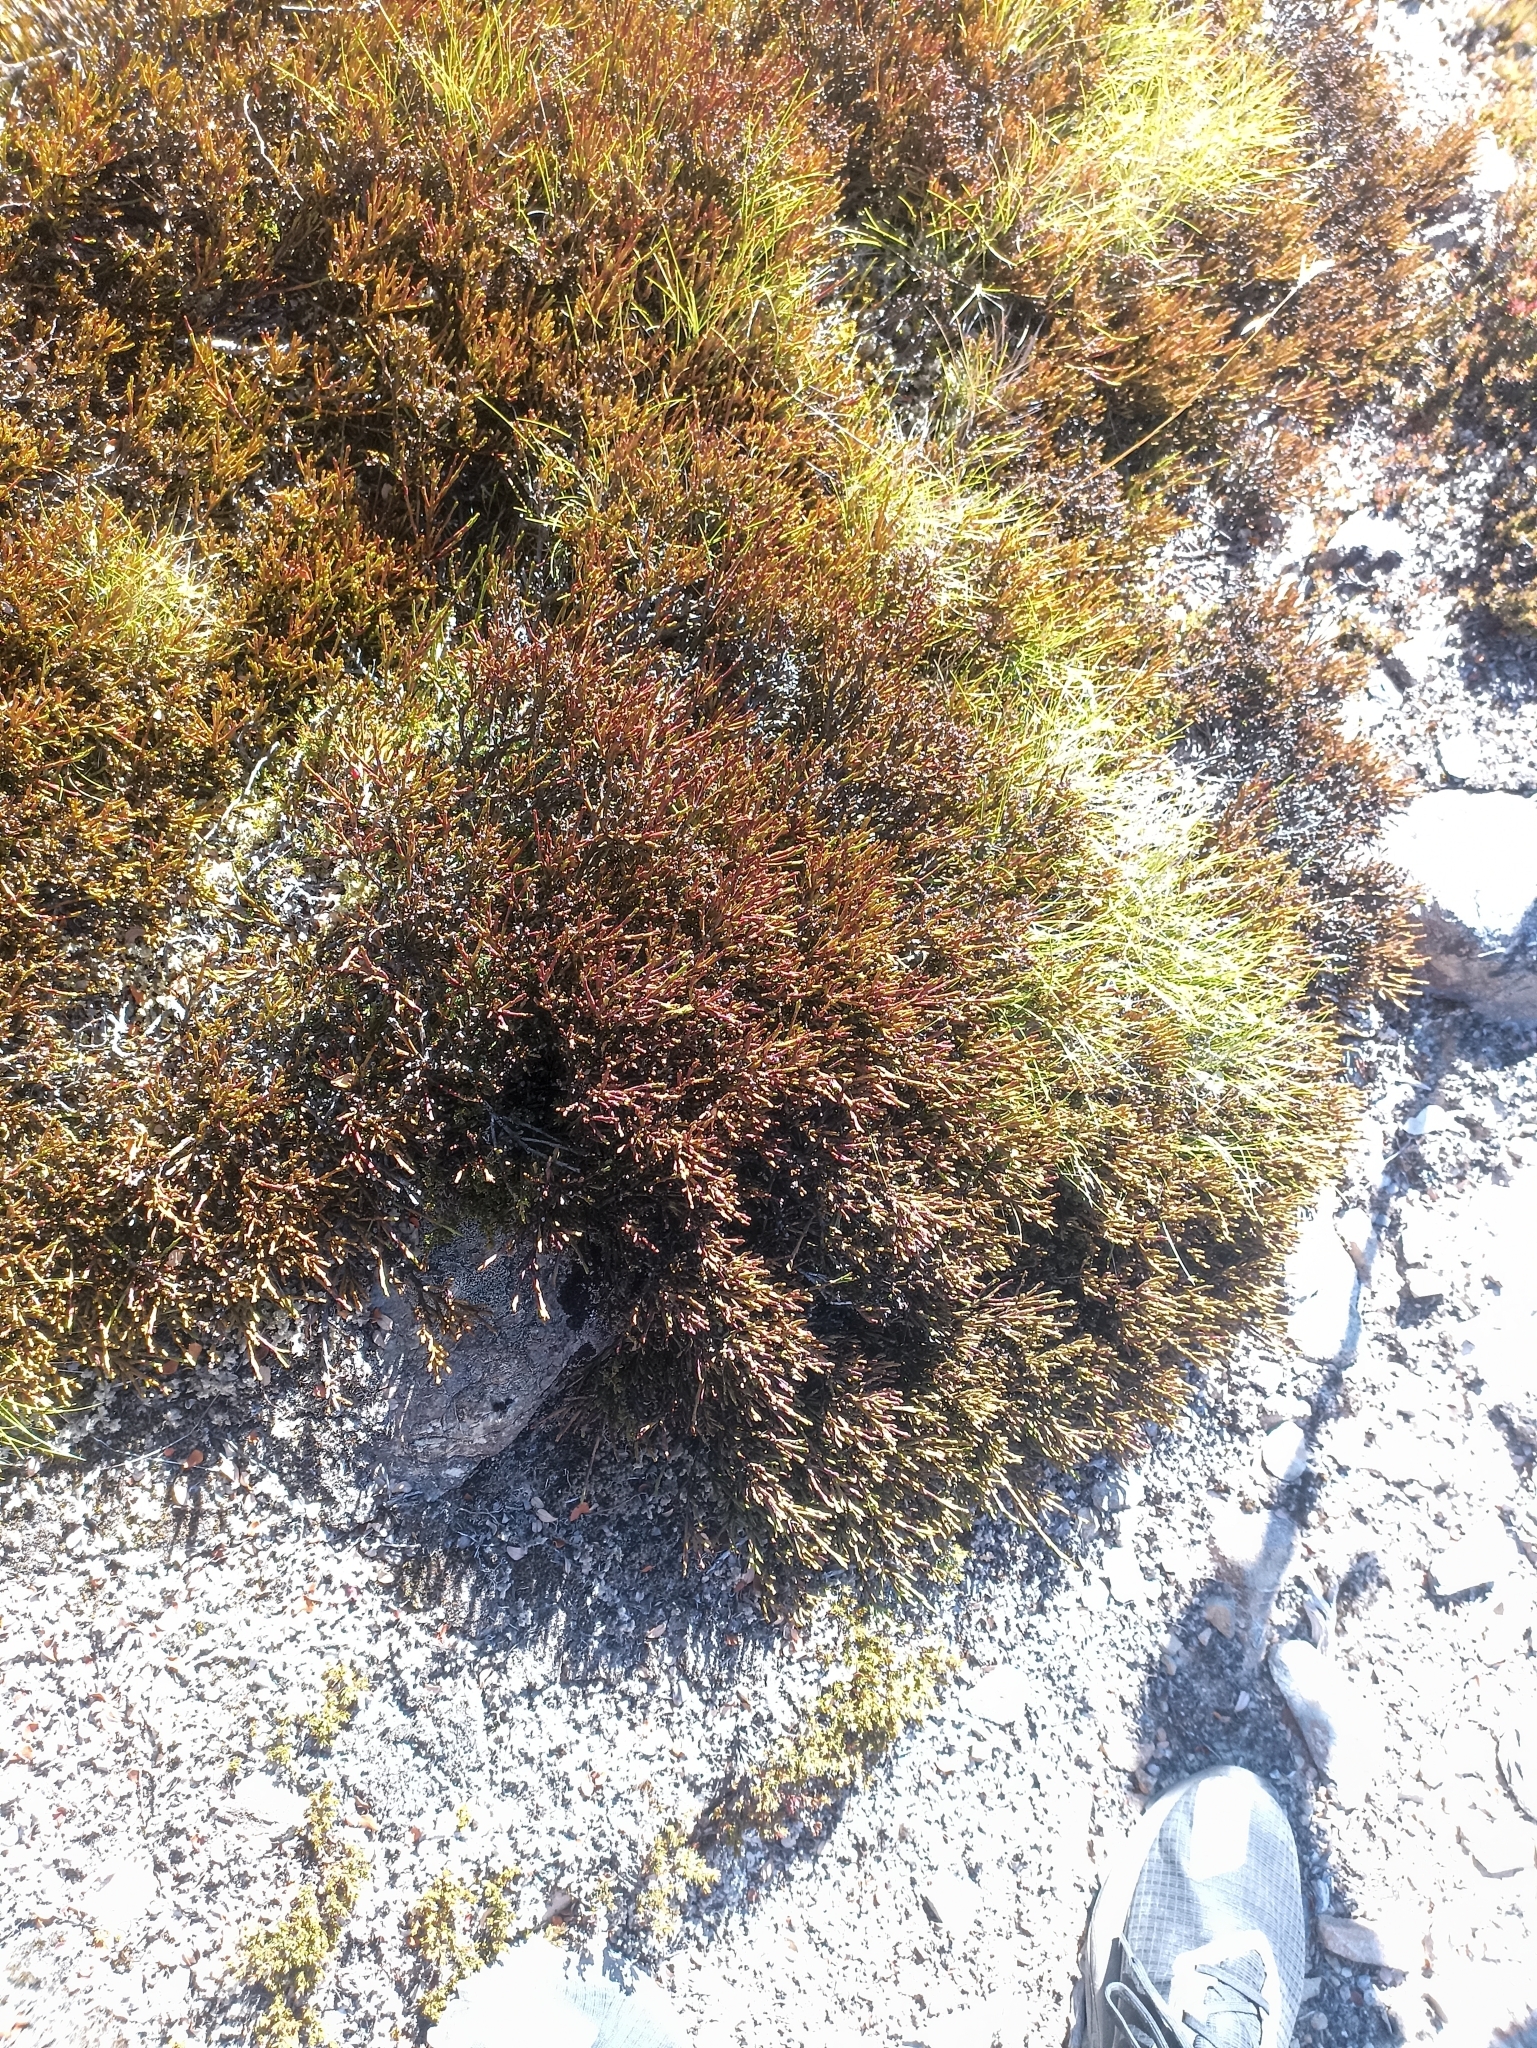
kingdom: Plantae
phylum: Tracheophyta
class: Magnoliopsida
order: Santalales
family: Santalaceae
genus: Exocarpos
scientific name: Exocarpos bidwillii
